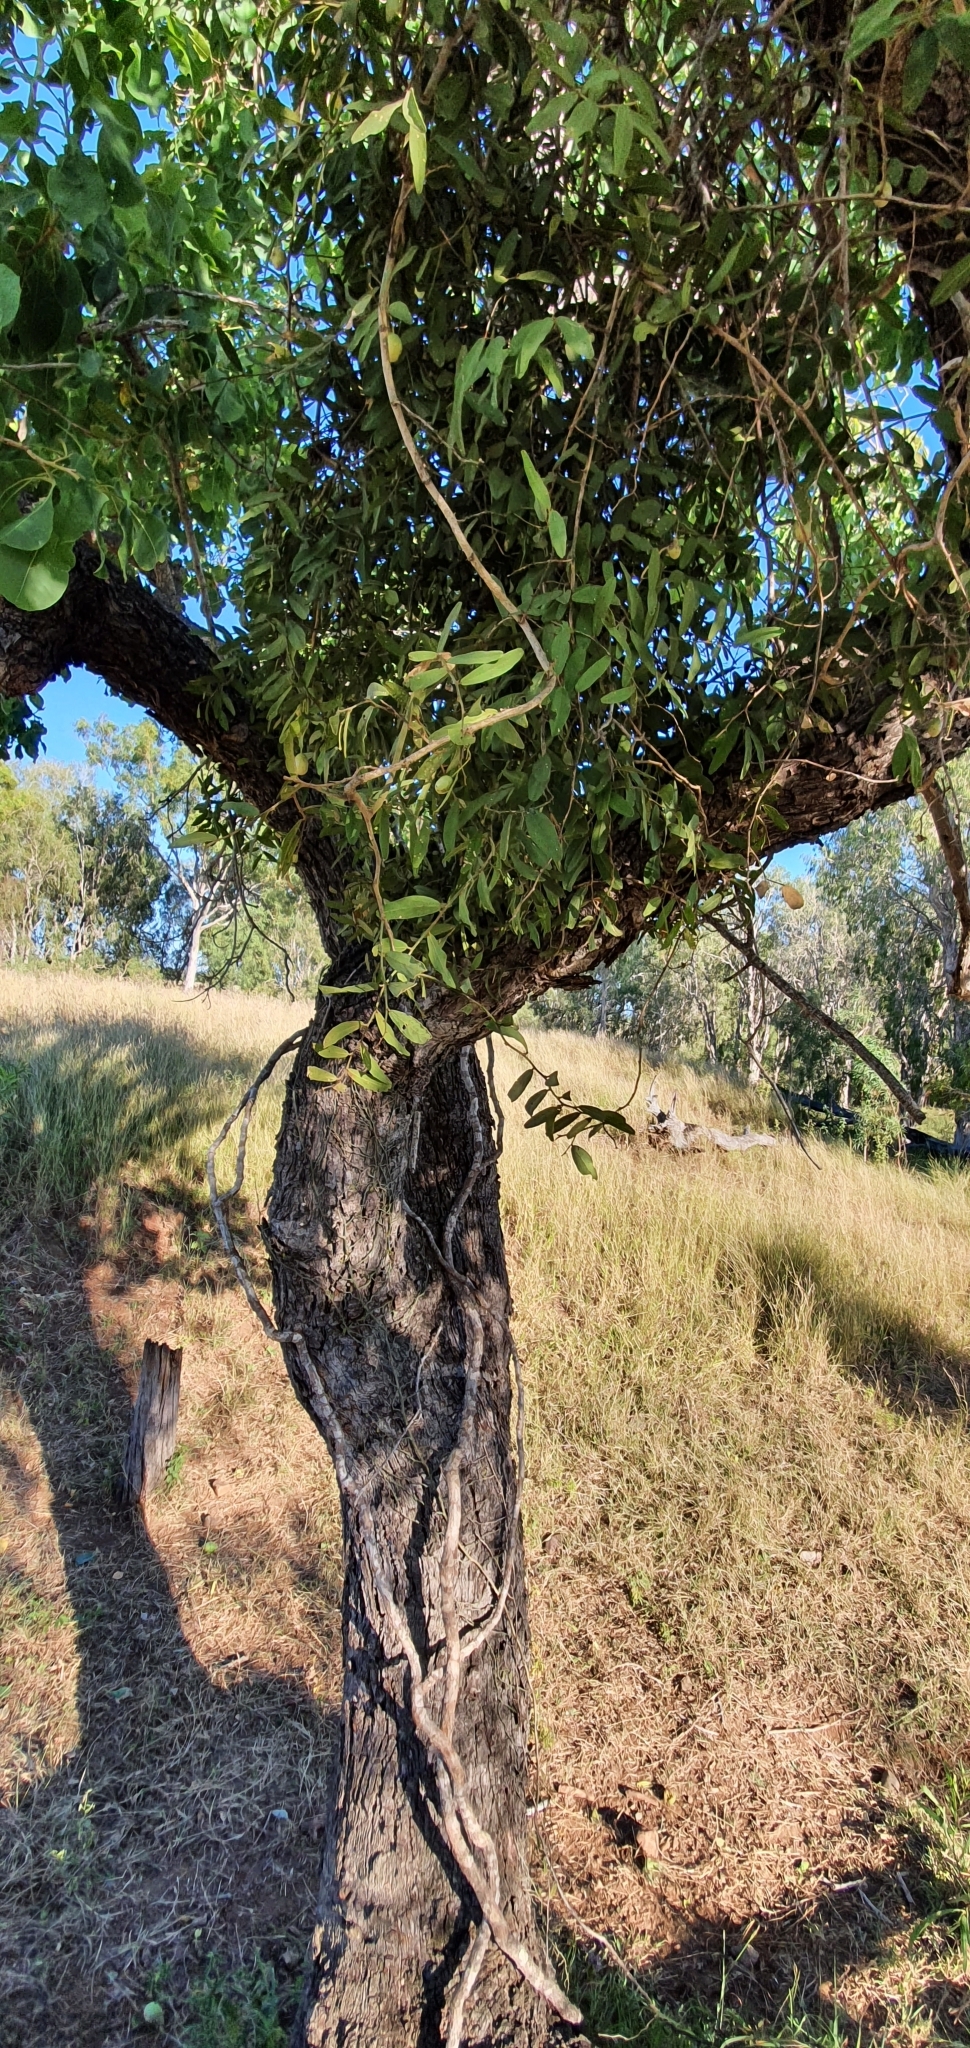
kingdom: Plantae
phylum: Tracheophyta
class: Magnoliopsida
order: Brassicales
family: Capparaceae
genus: Capparis
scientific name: Capparis lasiantha
